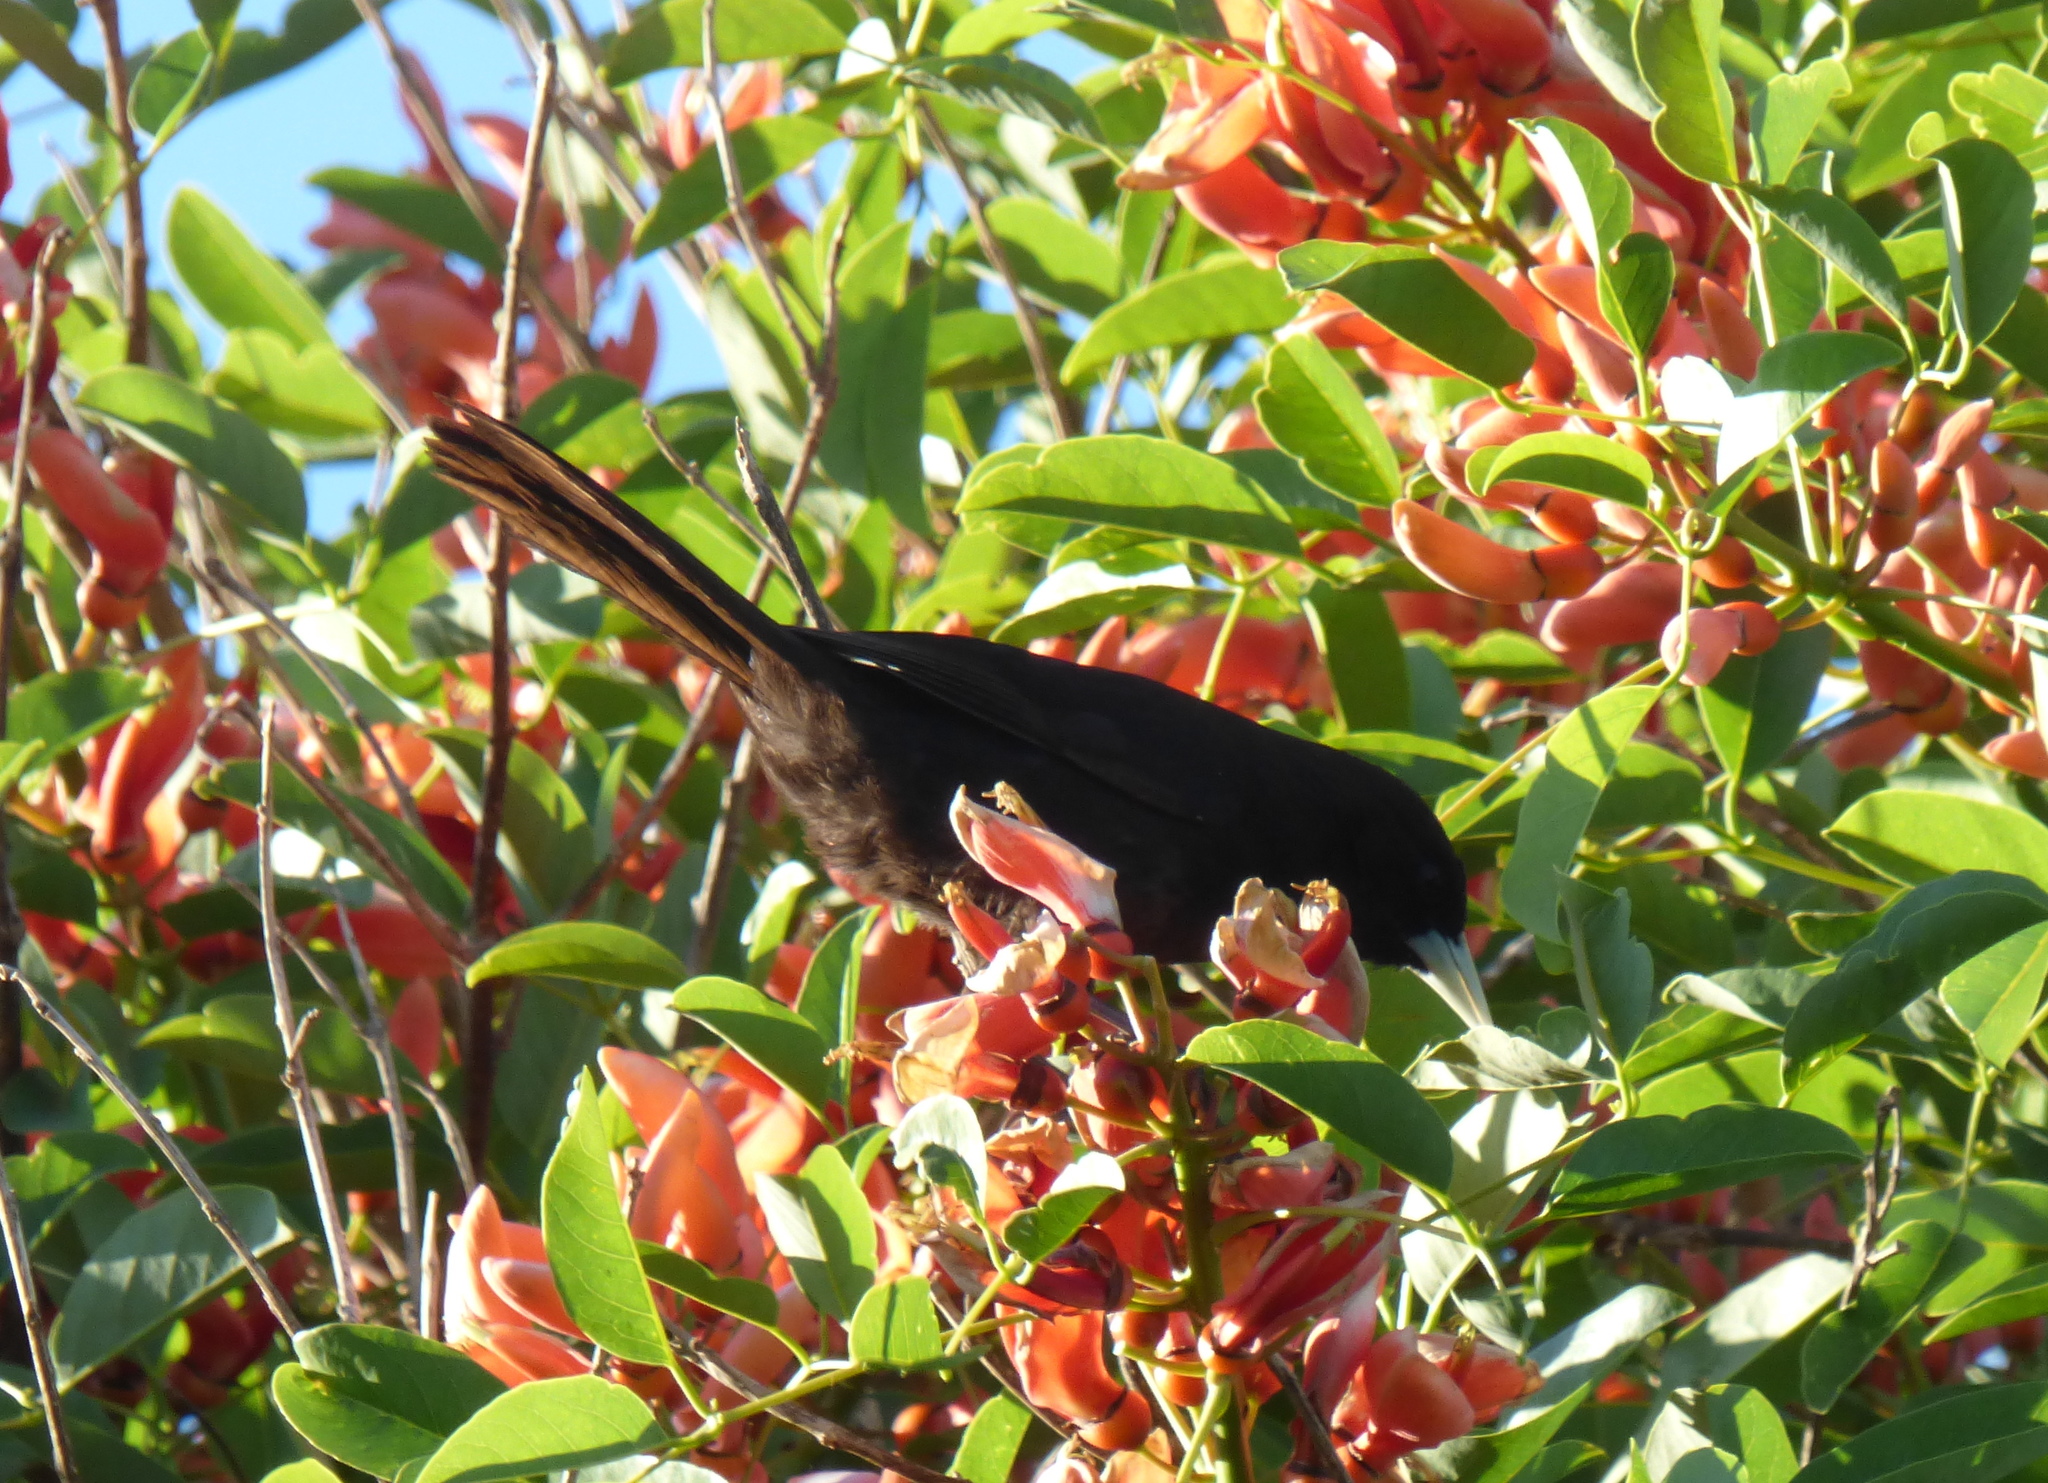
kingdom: Animalia
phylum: Chordata
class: Aves
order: Passeriformes
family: Icteridae
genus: Cacicus
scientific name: Cacicus solitarius
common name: Solitary cacique
